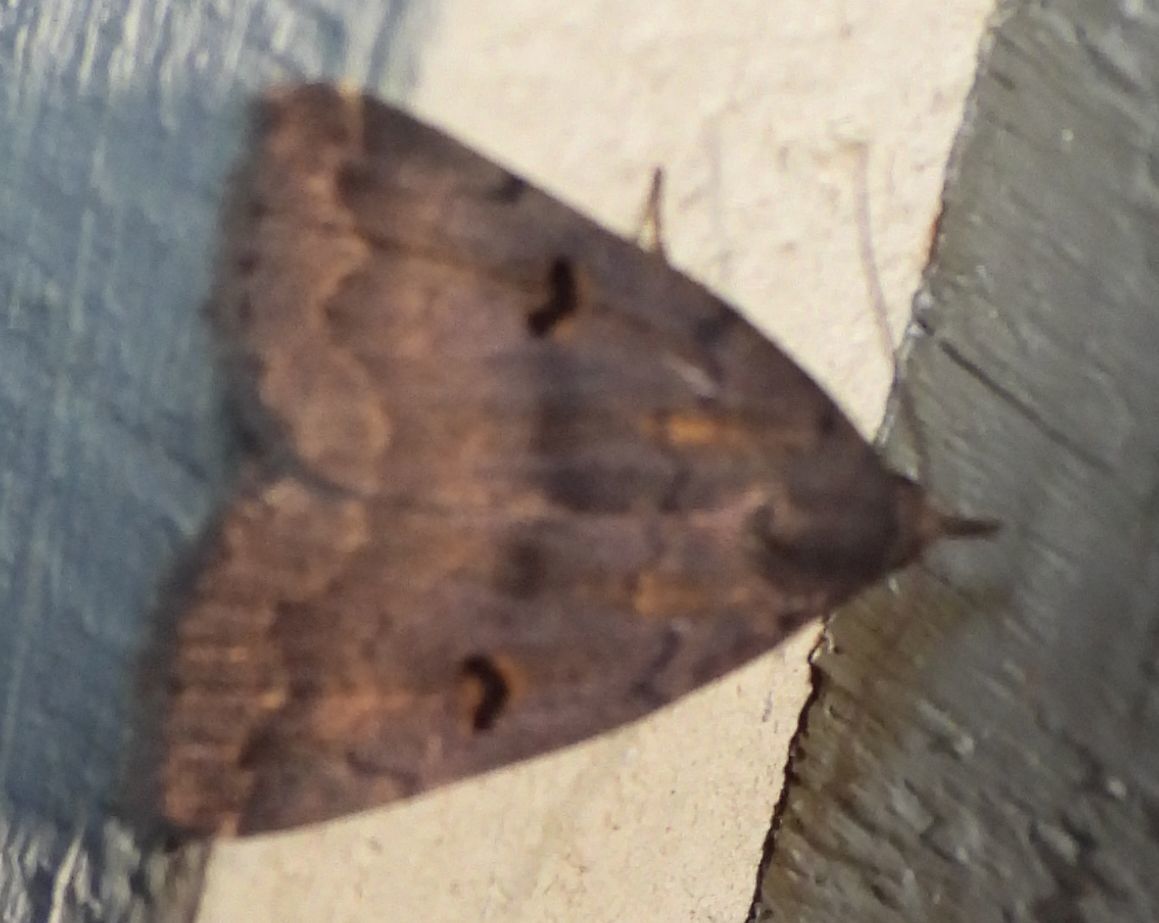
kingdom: Animalia
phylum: Arthropoda
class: Insecta
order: Lepidoptera
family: Erebidae
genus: Phalaenostola
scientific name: Phalaenostola hanhami
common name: Hanham's owlet
